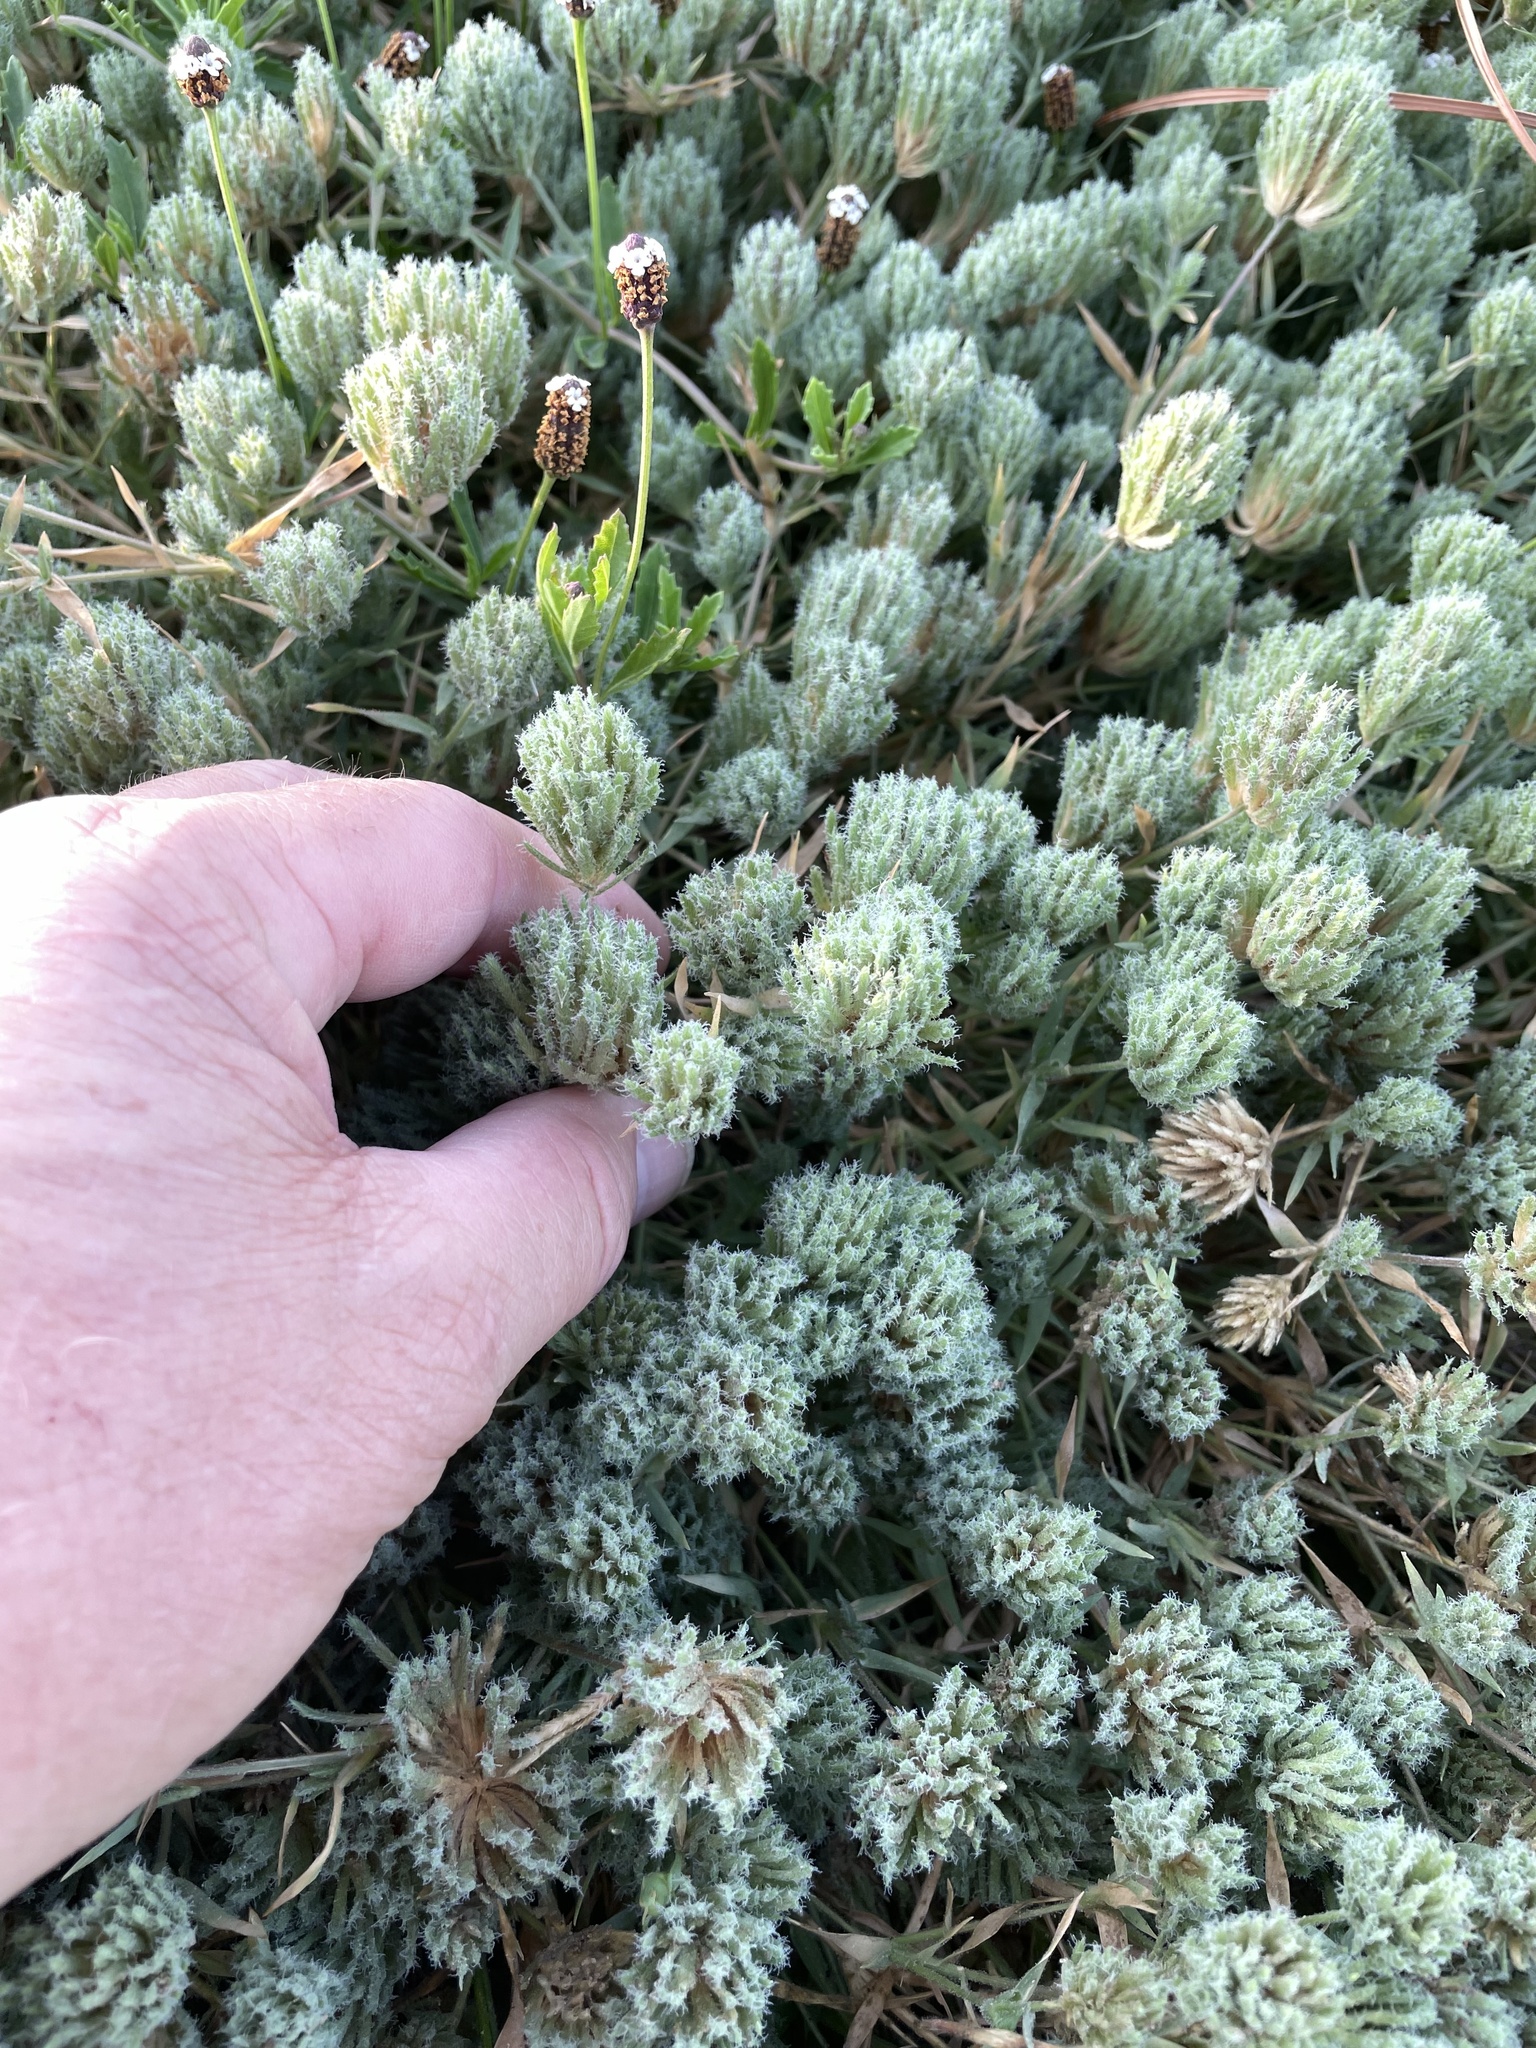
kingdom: Plantae
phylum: Tracheophyta
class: Liliopsida
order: Poales
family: Poaceae
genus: Eragrostis
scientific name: Eragrostis reptans
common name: Creeping love grass
